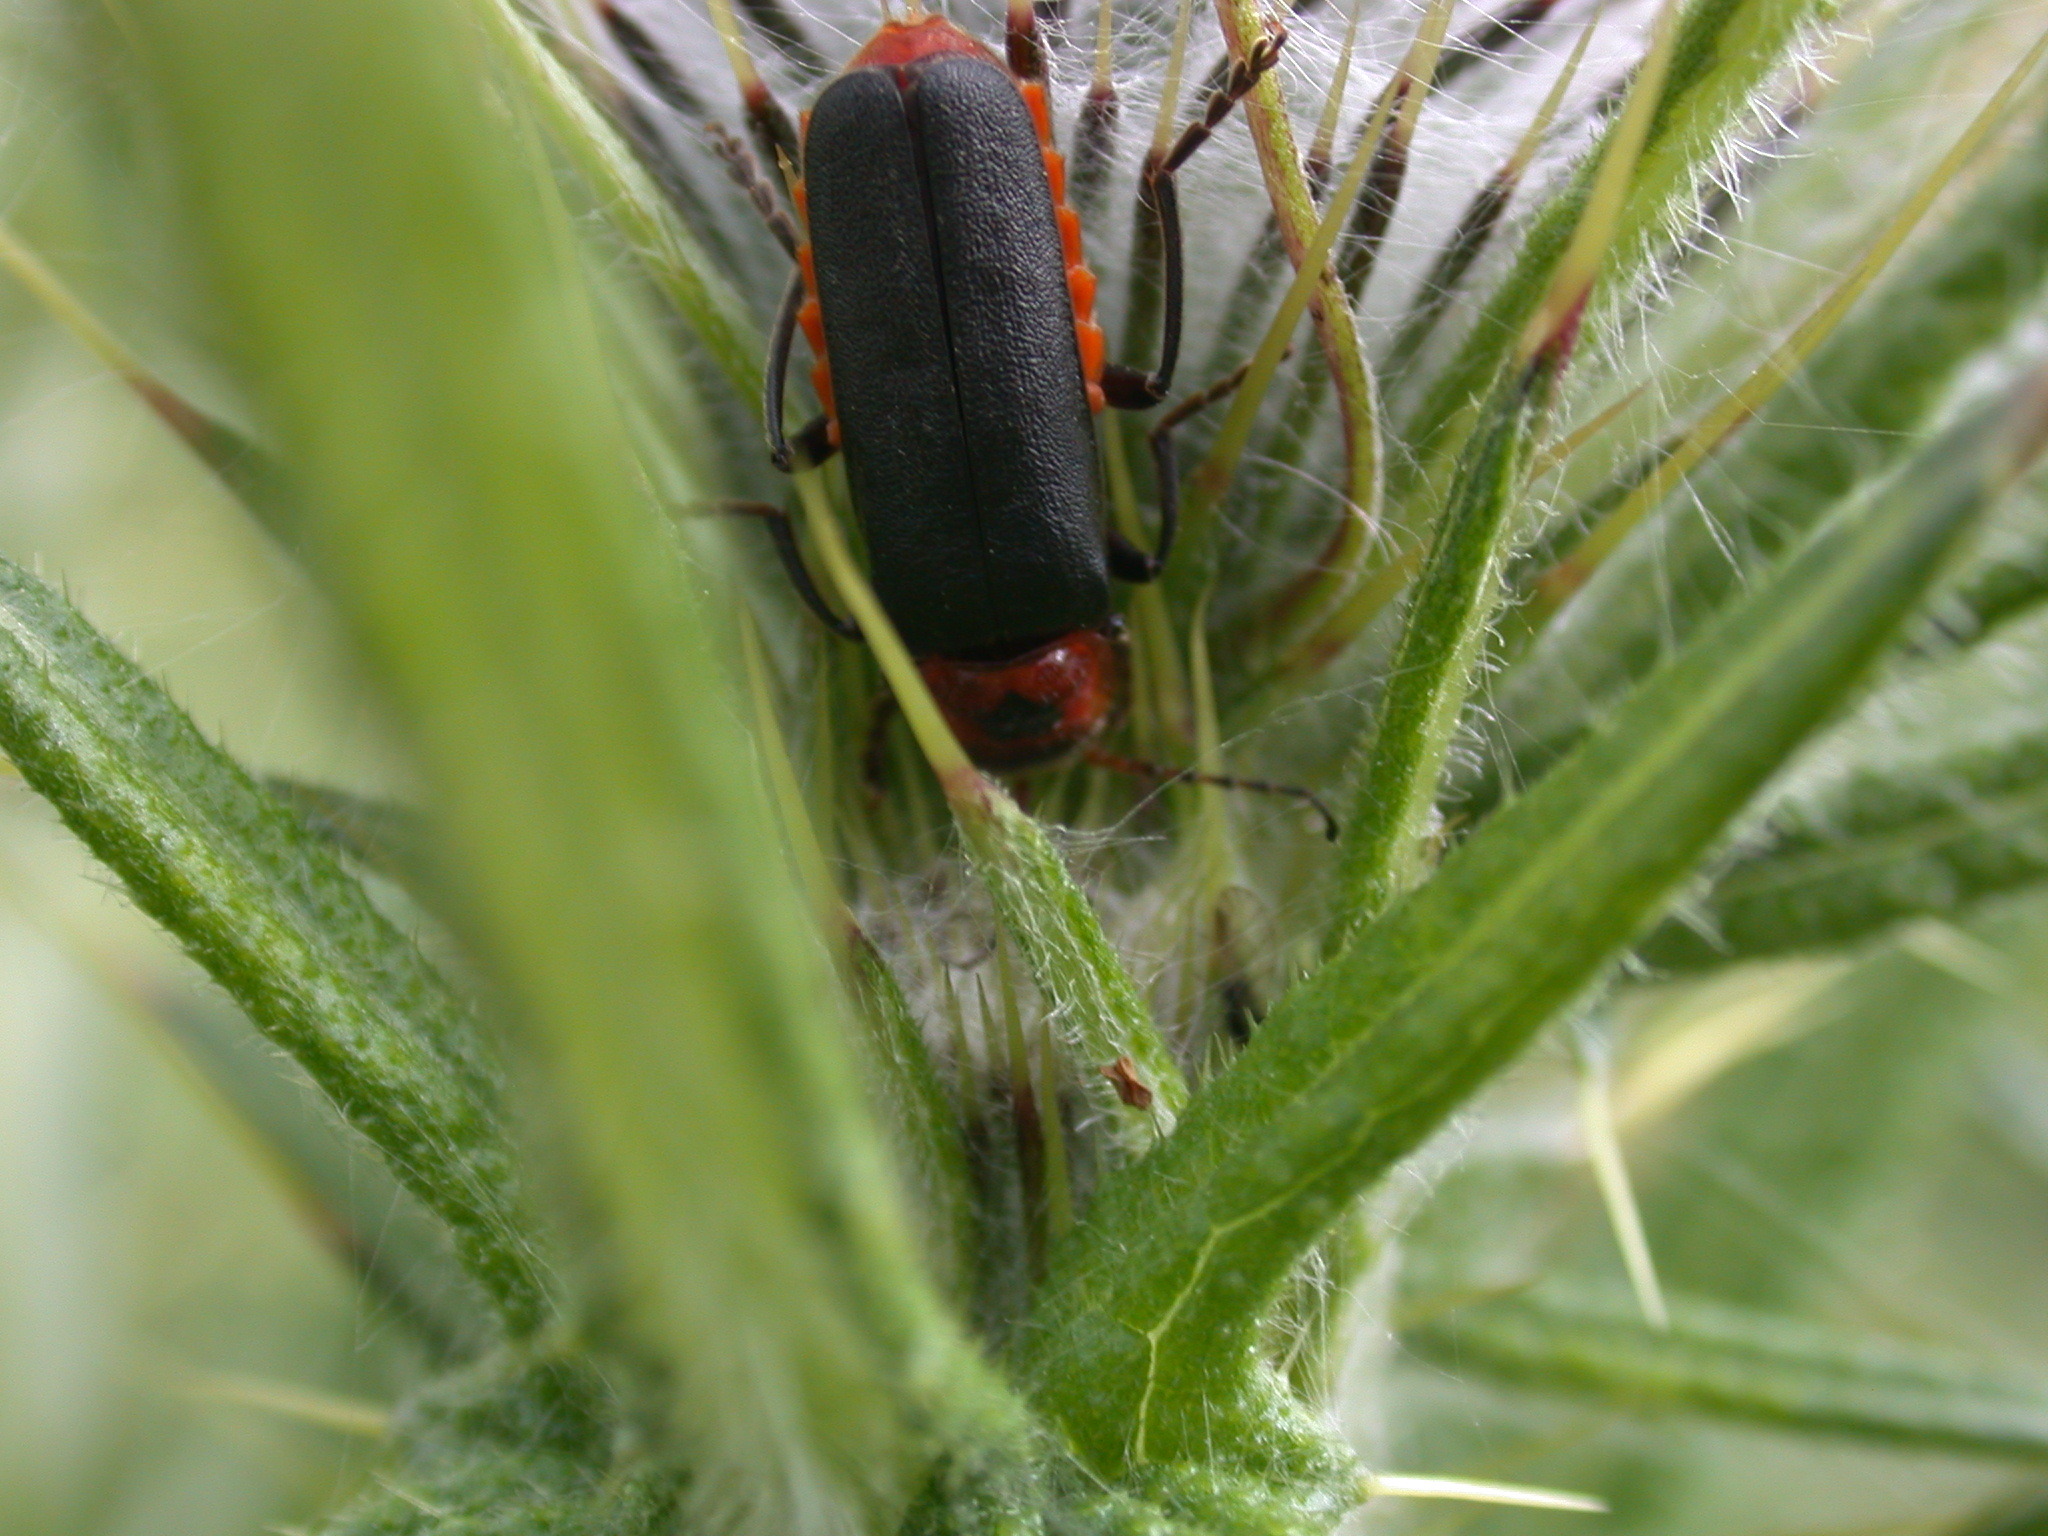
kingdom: Animalia
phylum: Arthropoda
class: Insecta
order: Coleoptera
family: Cantharidae
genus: Cantharis
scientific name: Cantharis rustica
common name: Soldier beetle
